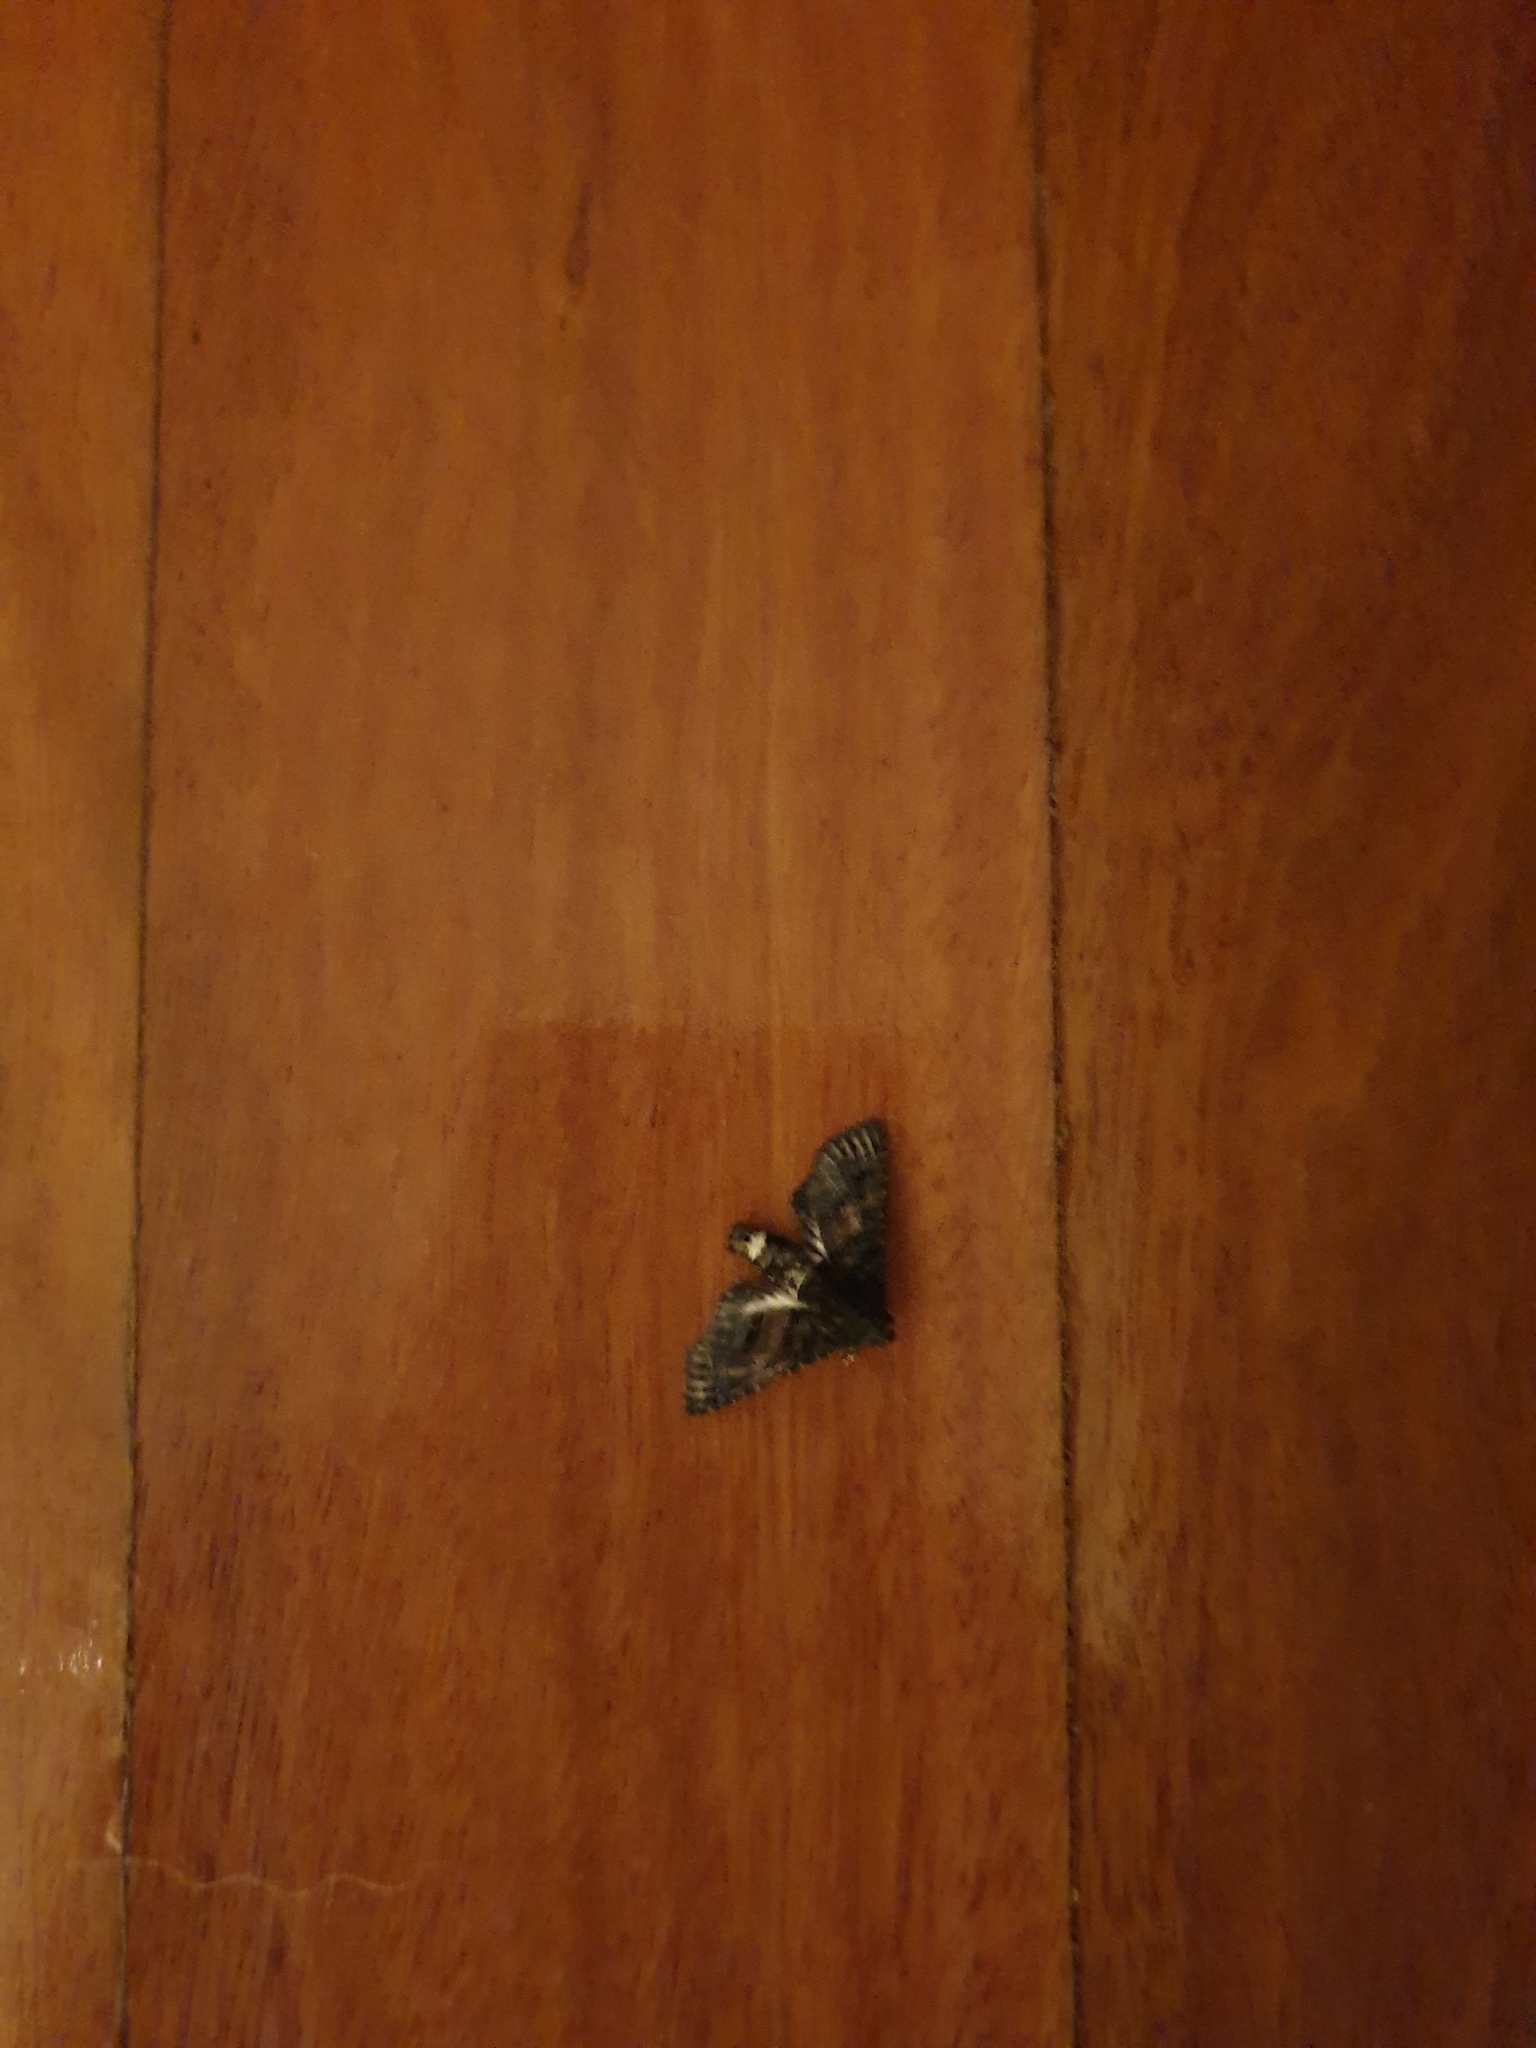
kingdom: Animalia
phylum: Arthropoda
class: Insecta
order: Lepidoptera
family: Euteliidae
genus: Pataeta
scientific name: Pataeta carbo
